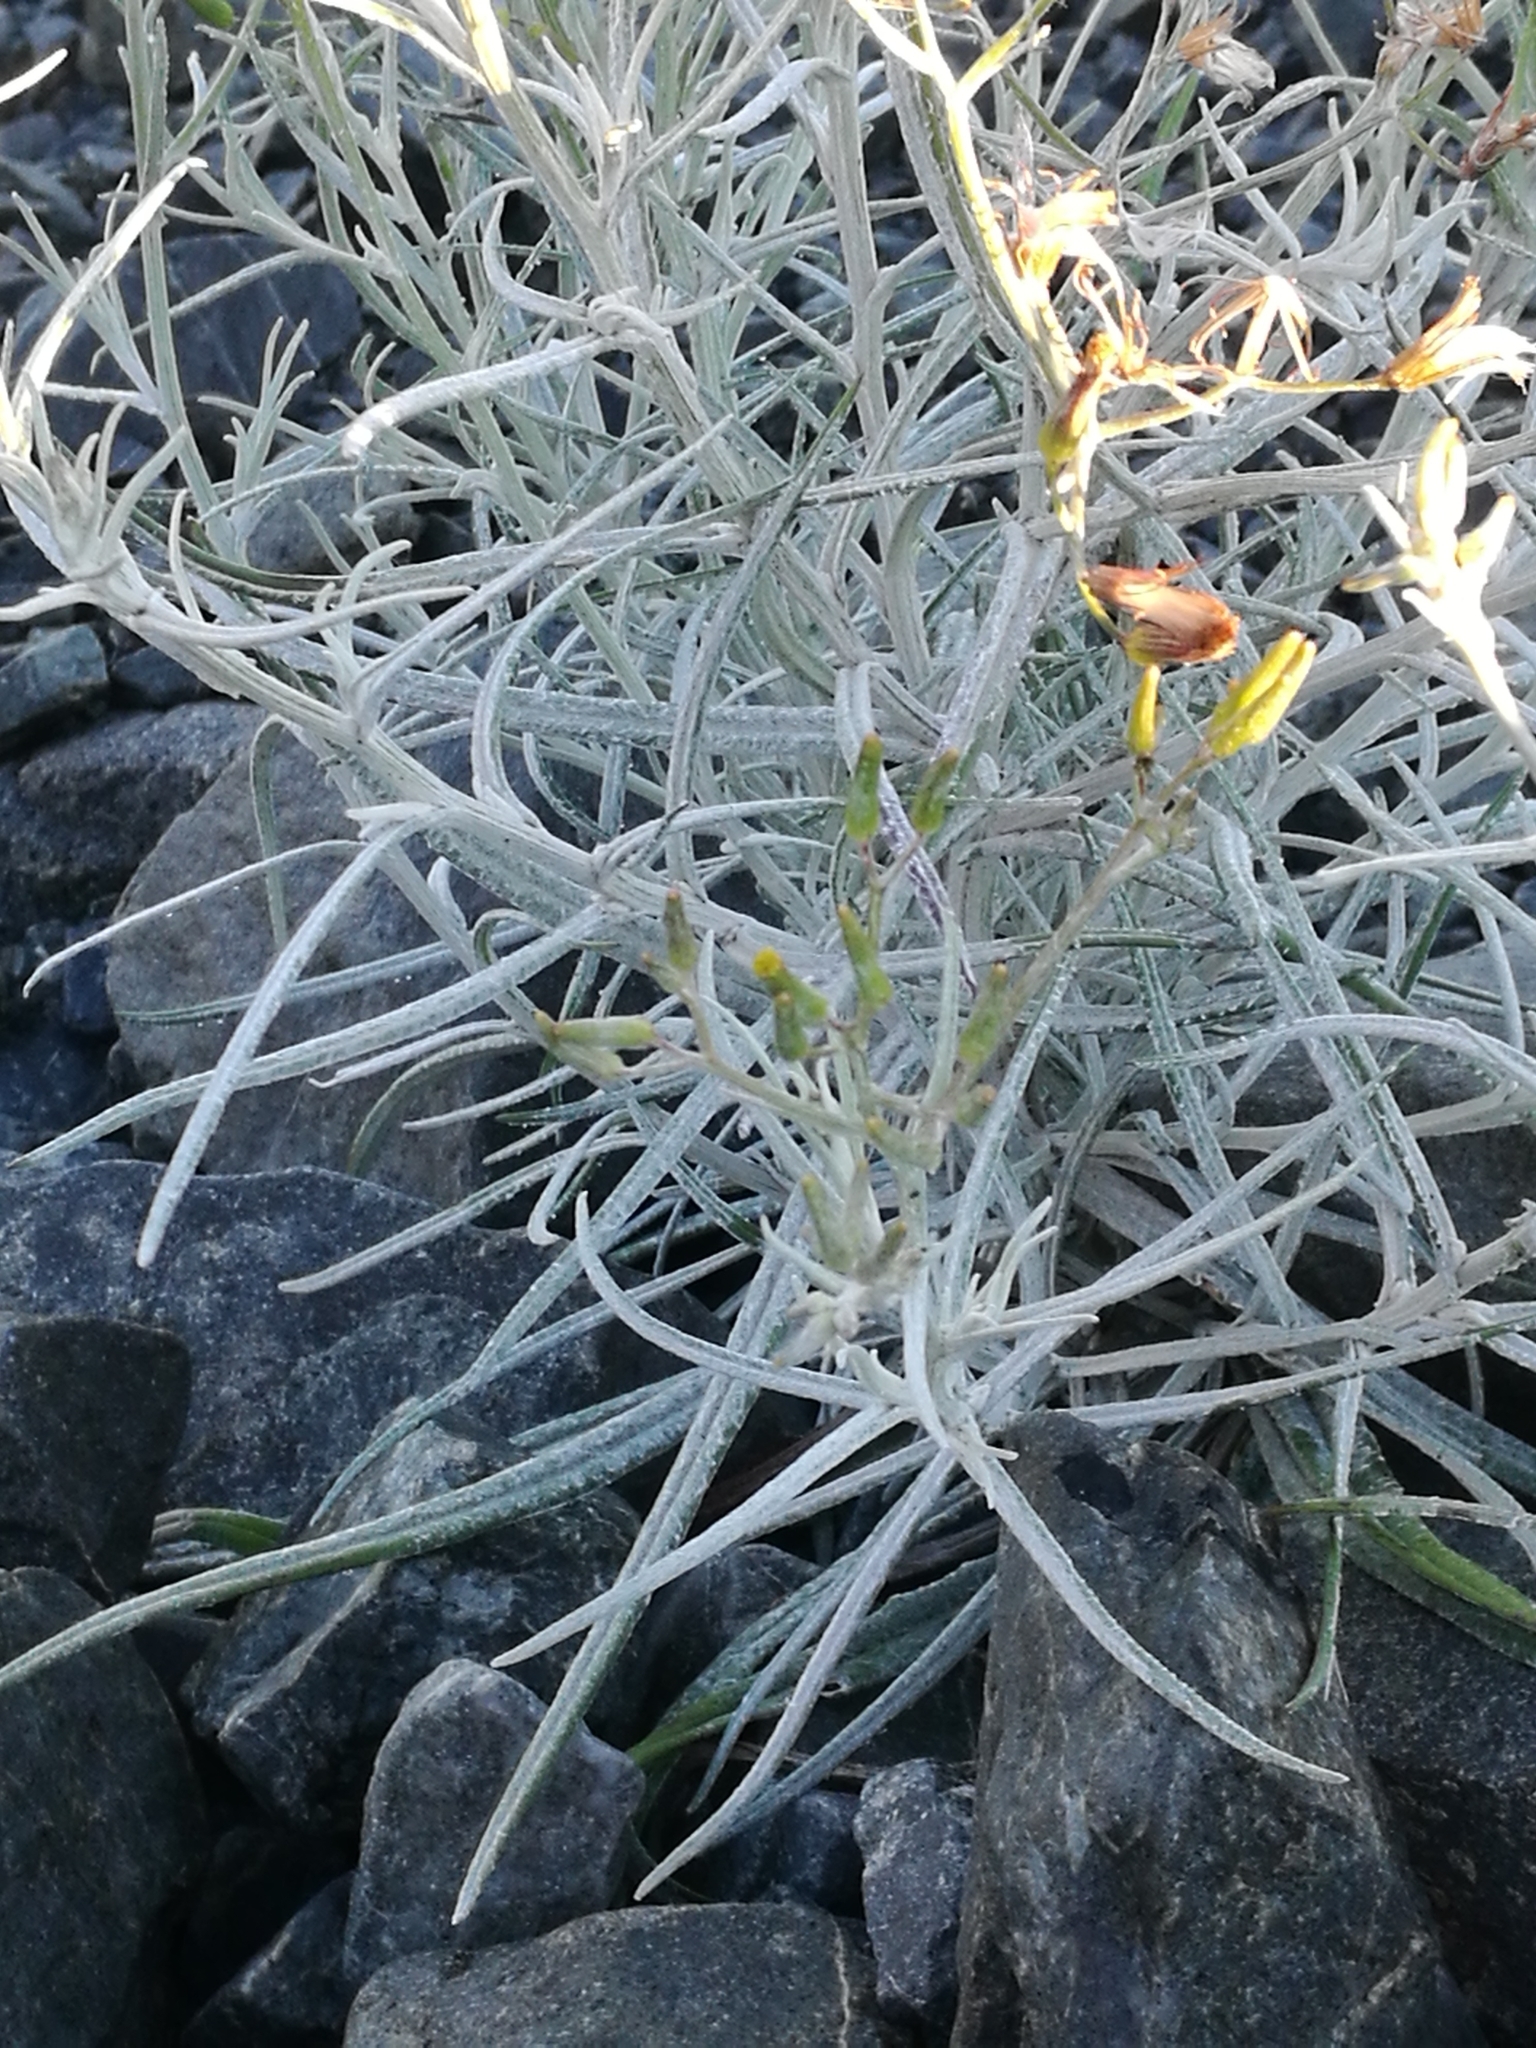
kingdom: Plantae
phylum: Tracheophyta
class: Magnoliopsida
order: Asterales
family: Asteraceae
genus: Senecio
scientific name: Senecio quadridentatus
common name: Cotton fireweed
